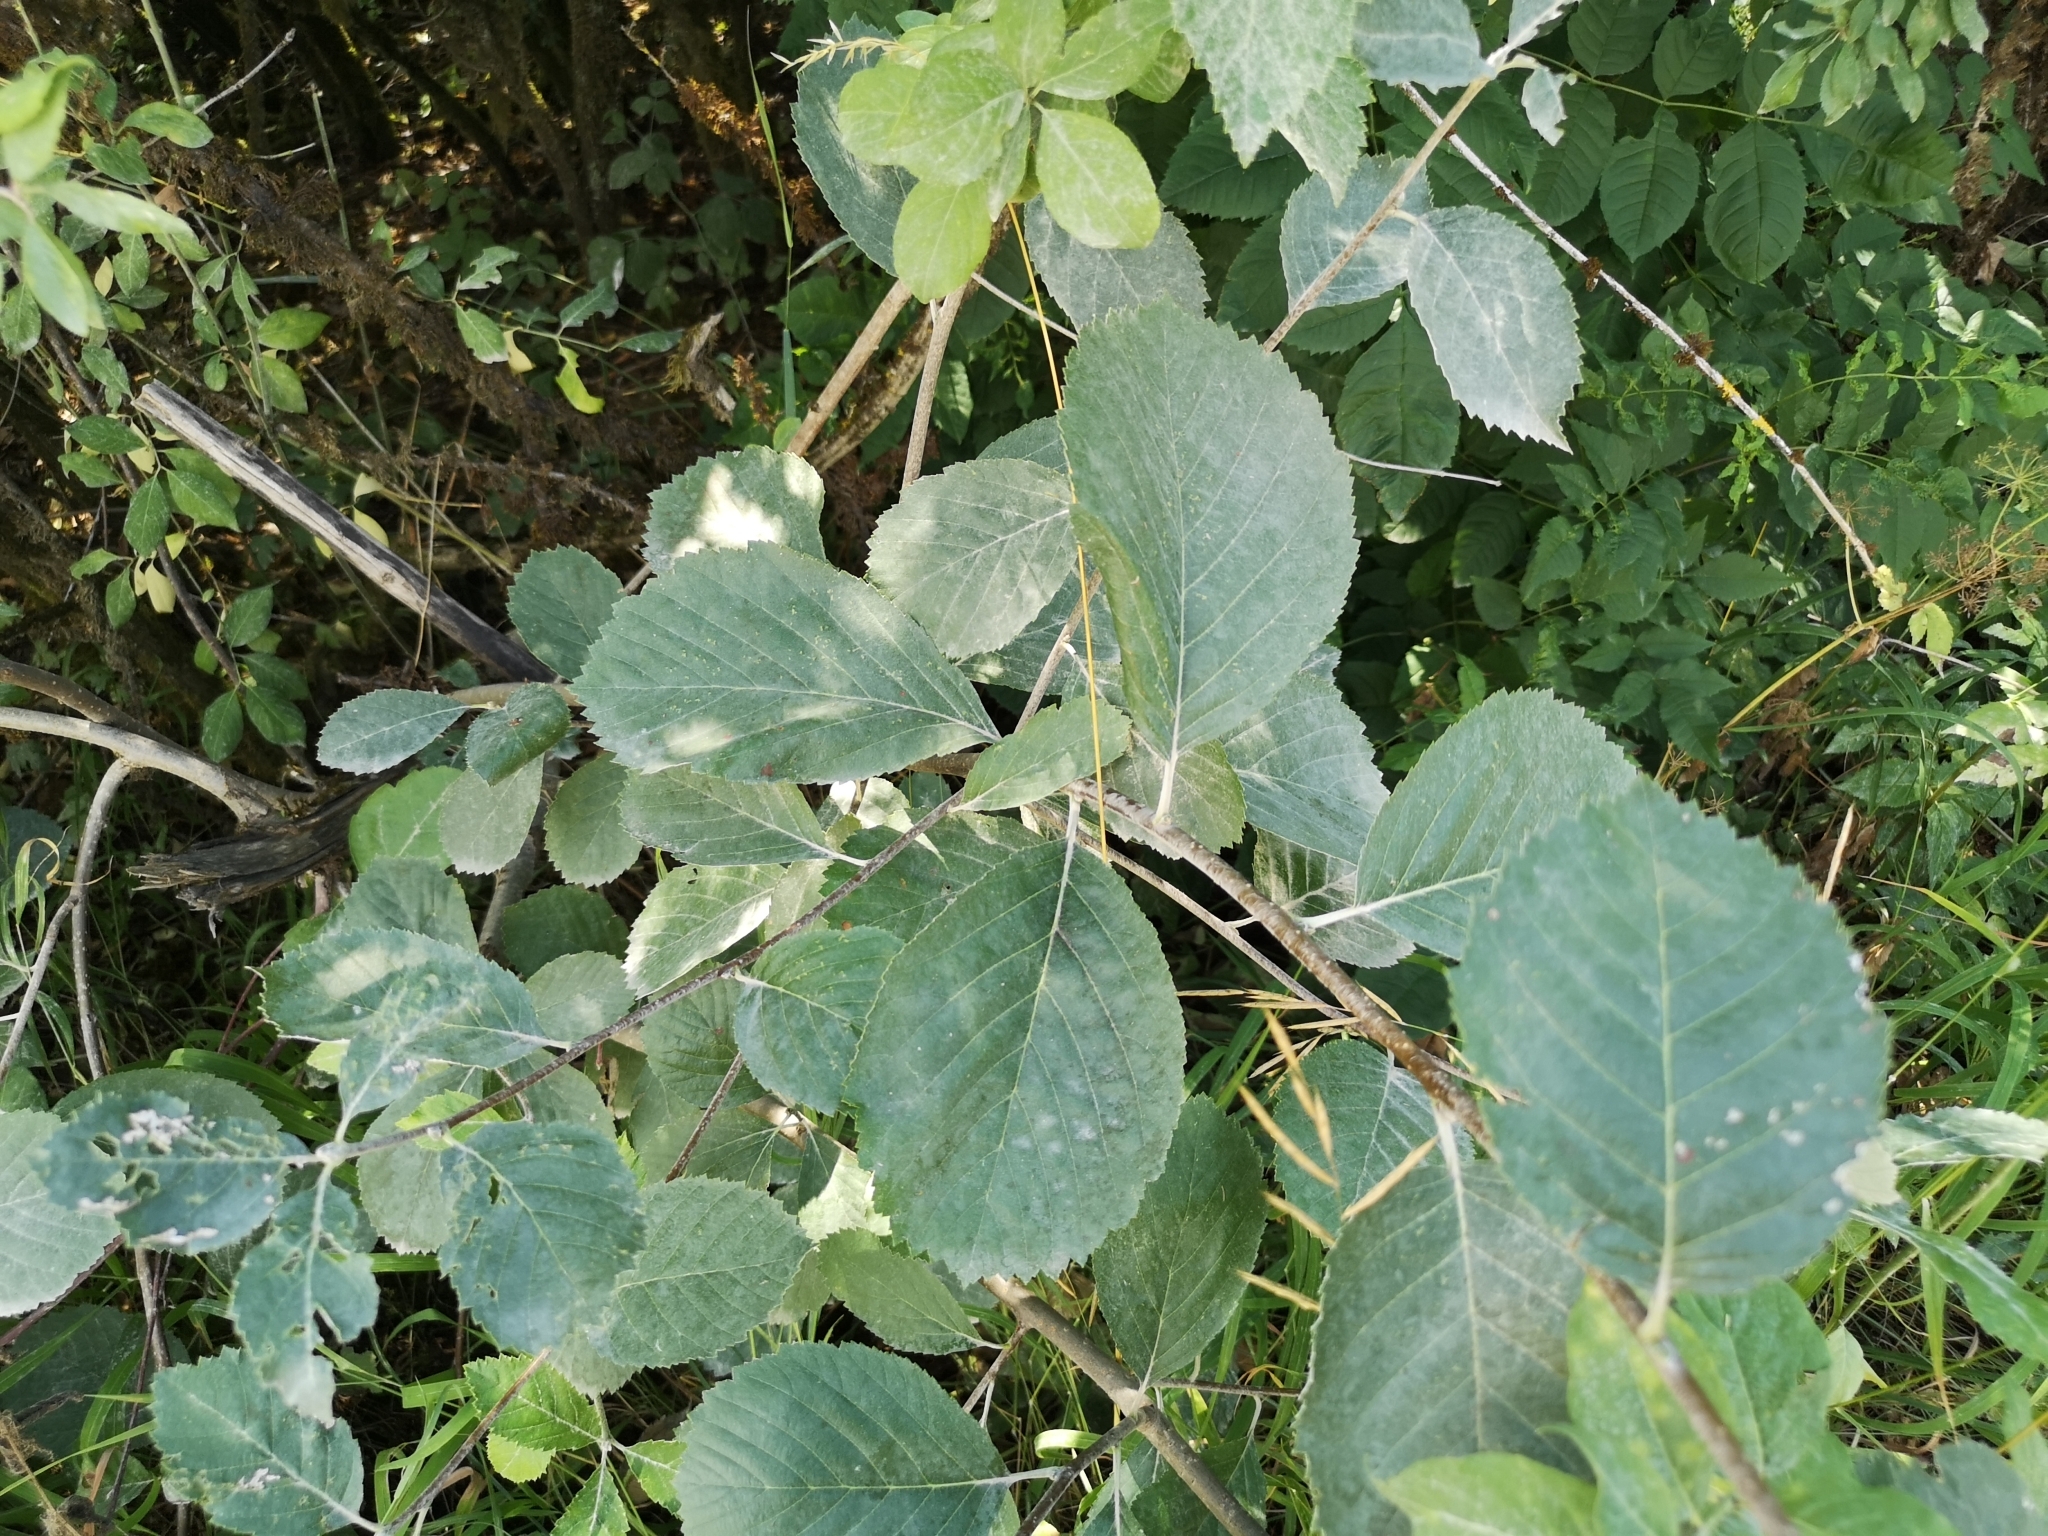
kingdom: Plantae
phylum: Tracheophyta
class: Magnoliopsida
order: Rosales
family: Rosaceae
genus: Aria
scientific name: Aria collina
